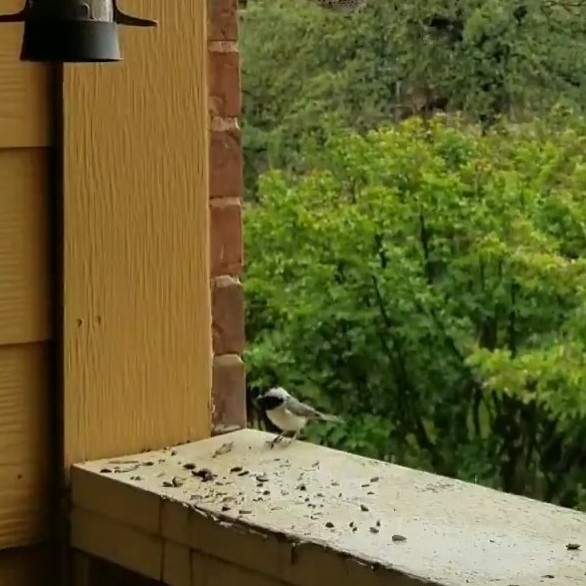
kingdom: Animalia
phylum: Chordata
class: Aves
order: Passeriformes
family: Paridae
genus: Poecile
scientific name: Poecile carolinensis
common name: Carolina chickadee
